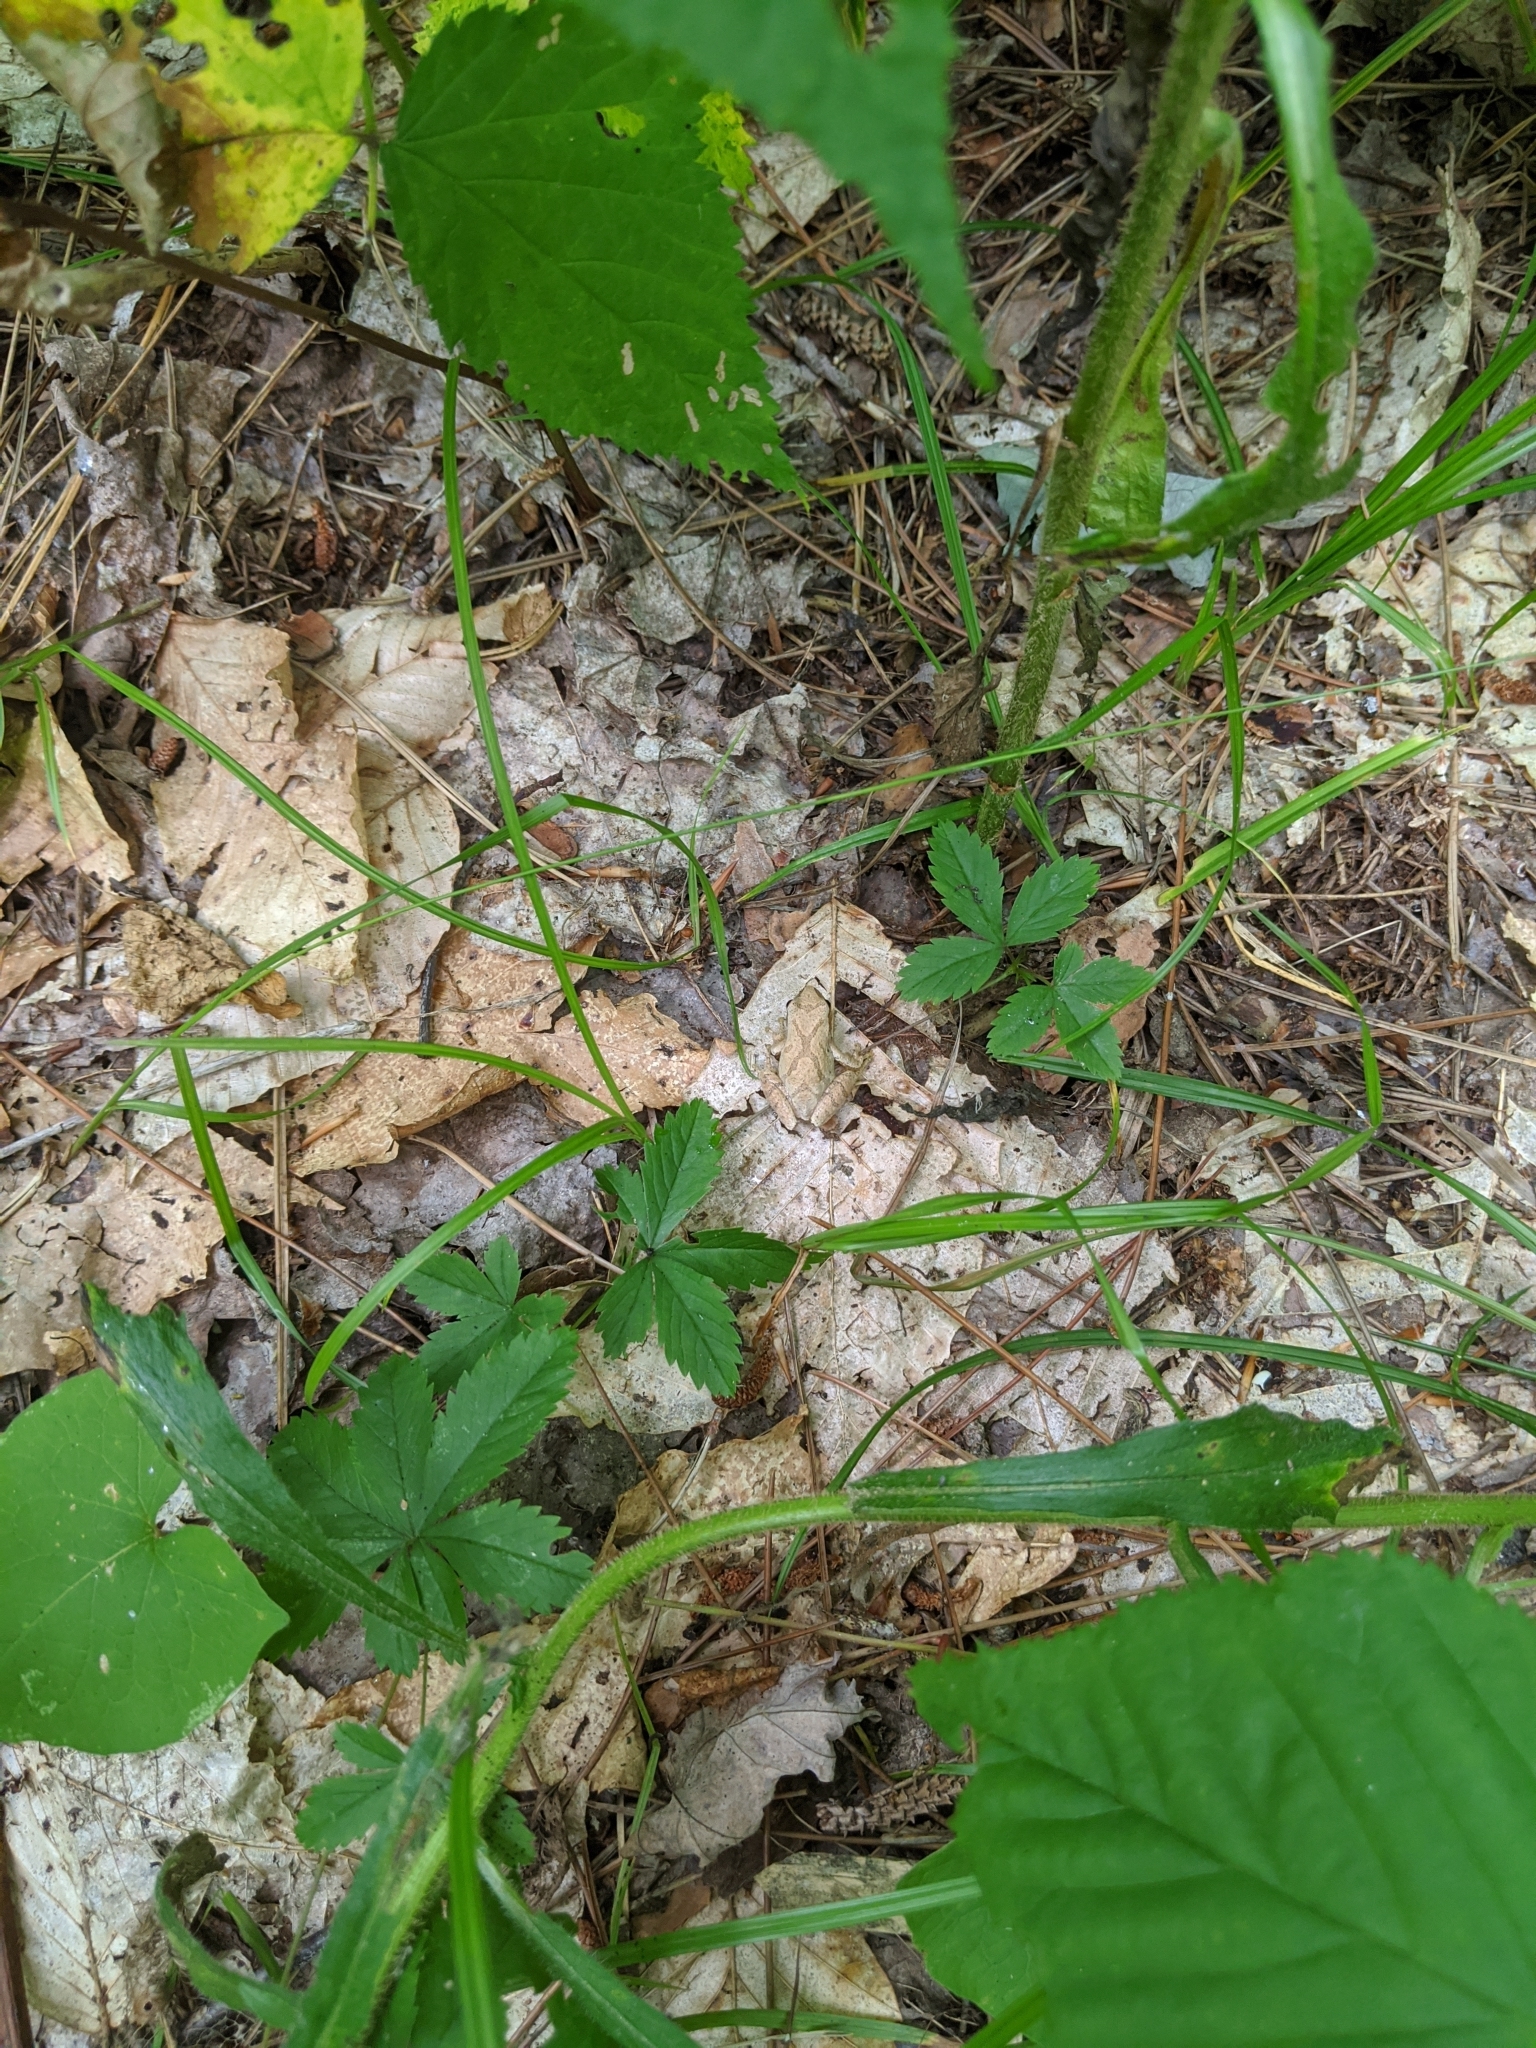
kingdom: Animalia
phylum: Chordata
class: Amphibia
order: Anura
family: Hylidae
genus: Pseudacris
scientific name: Pseudacris crucifer
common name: Spring peeper
